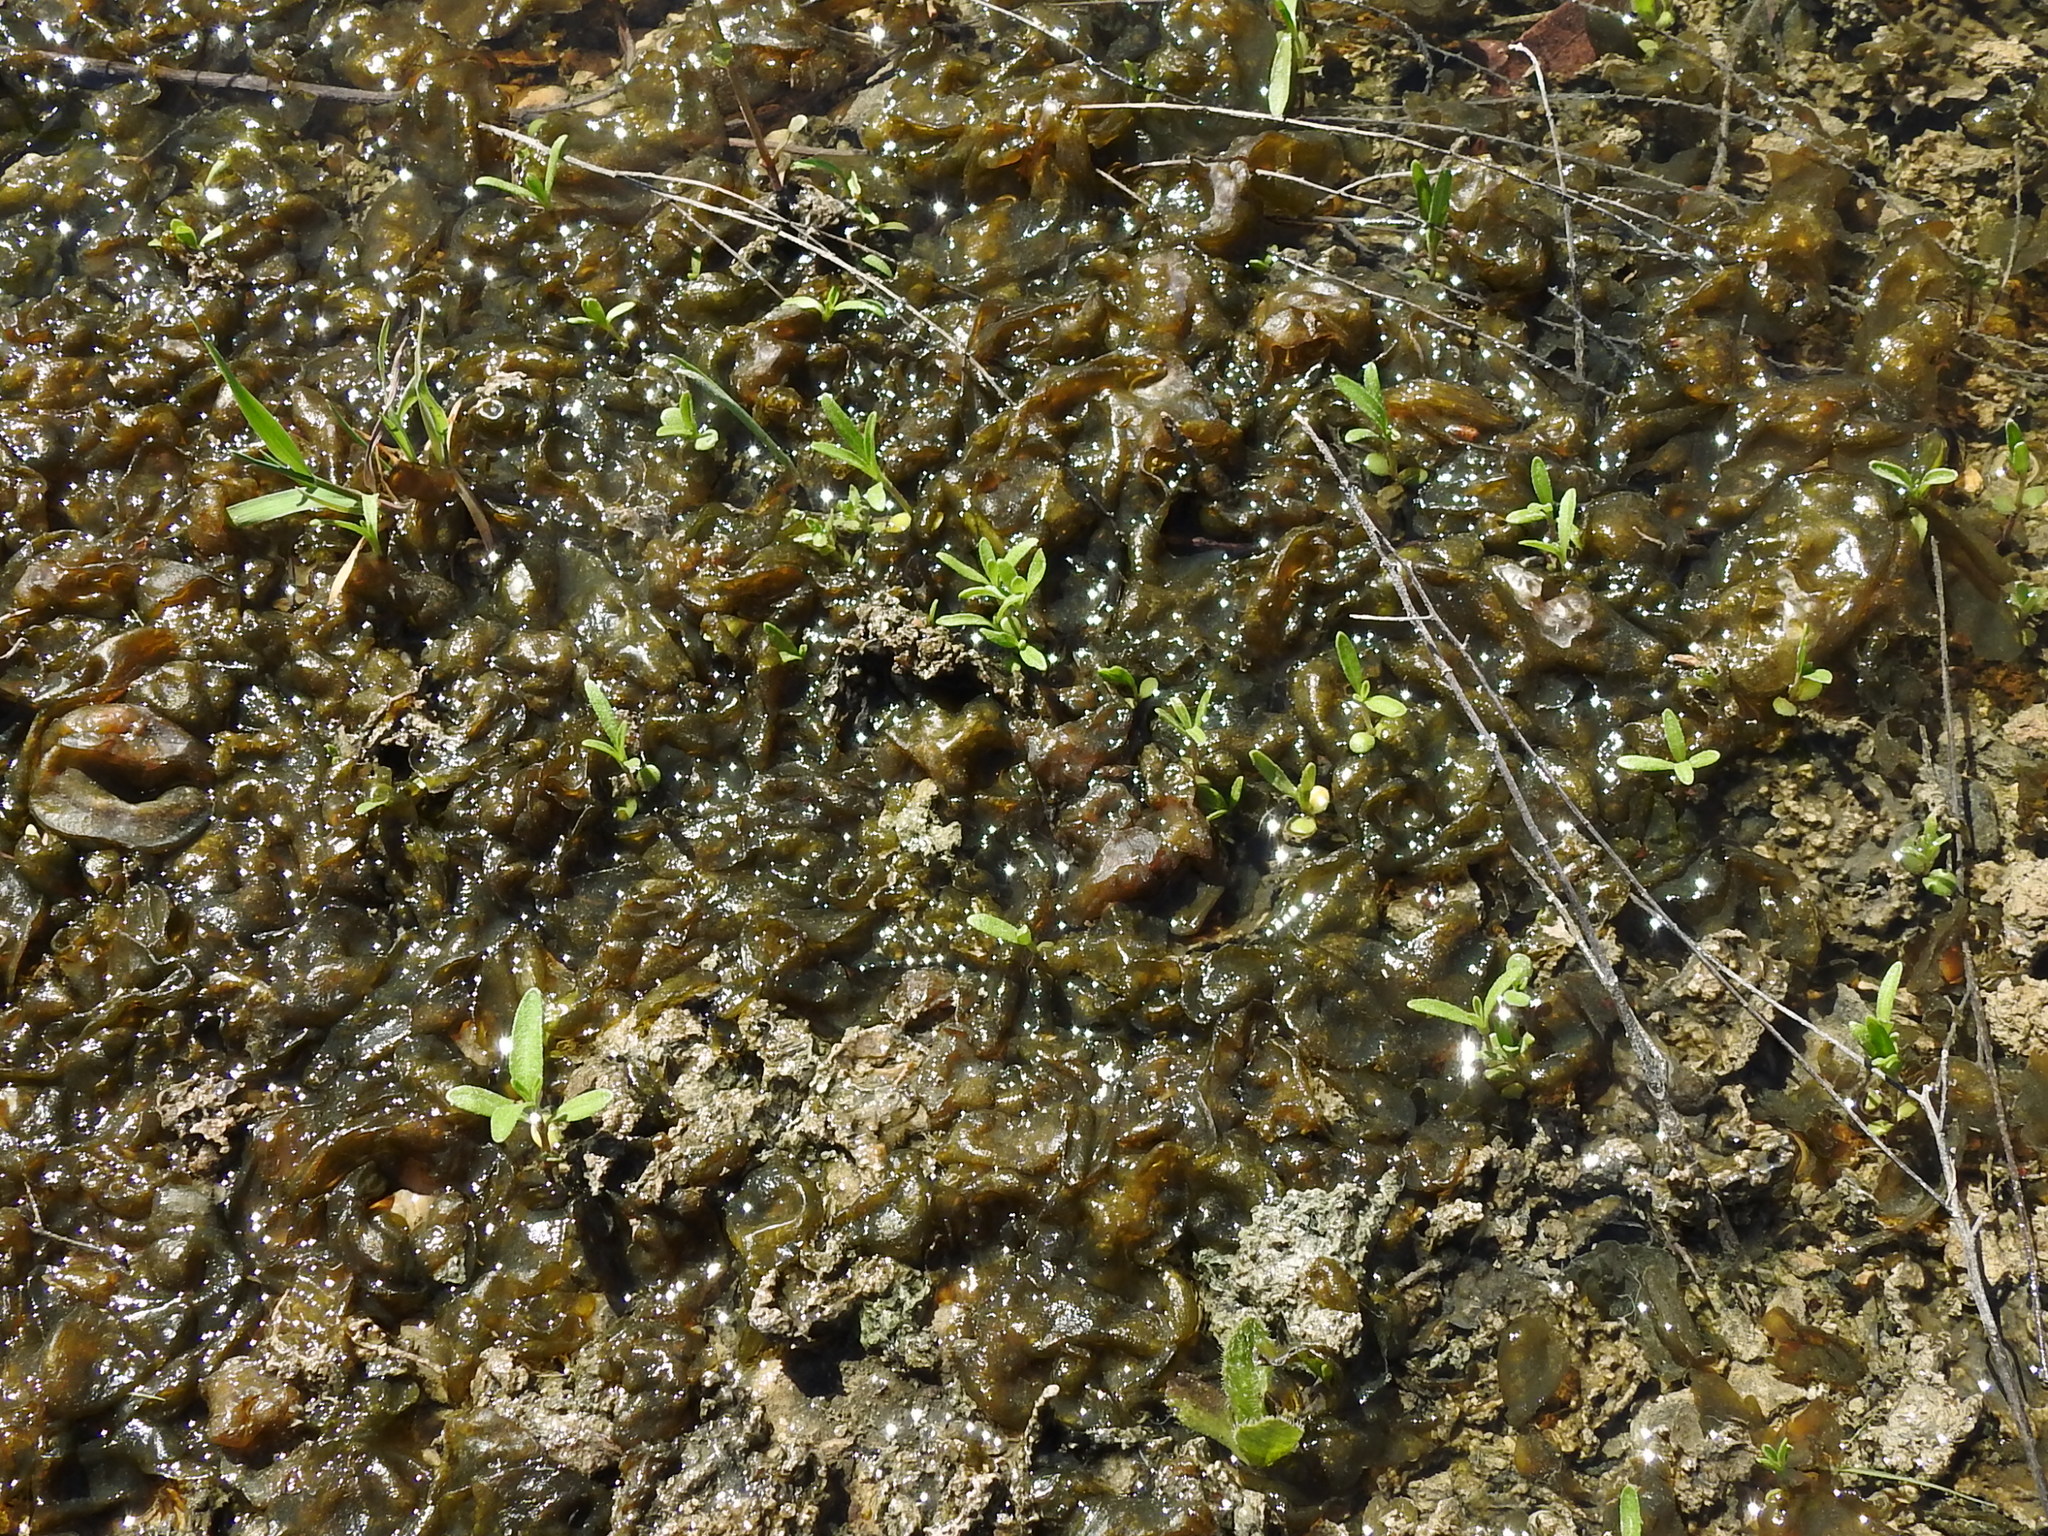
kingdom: Bacteria
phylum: Cyanobacteria
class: Cyanobacteriia
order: Cyanobacteriales
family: Nostocaceae
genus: Nostoc
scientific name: Nostoc commune
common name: Star jelly
